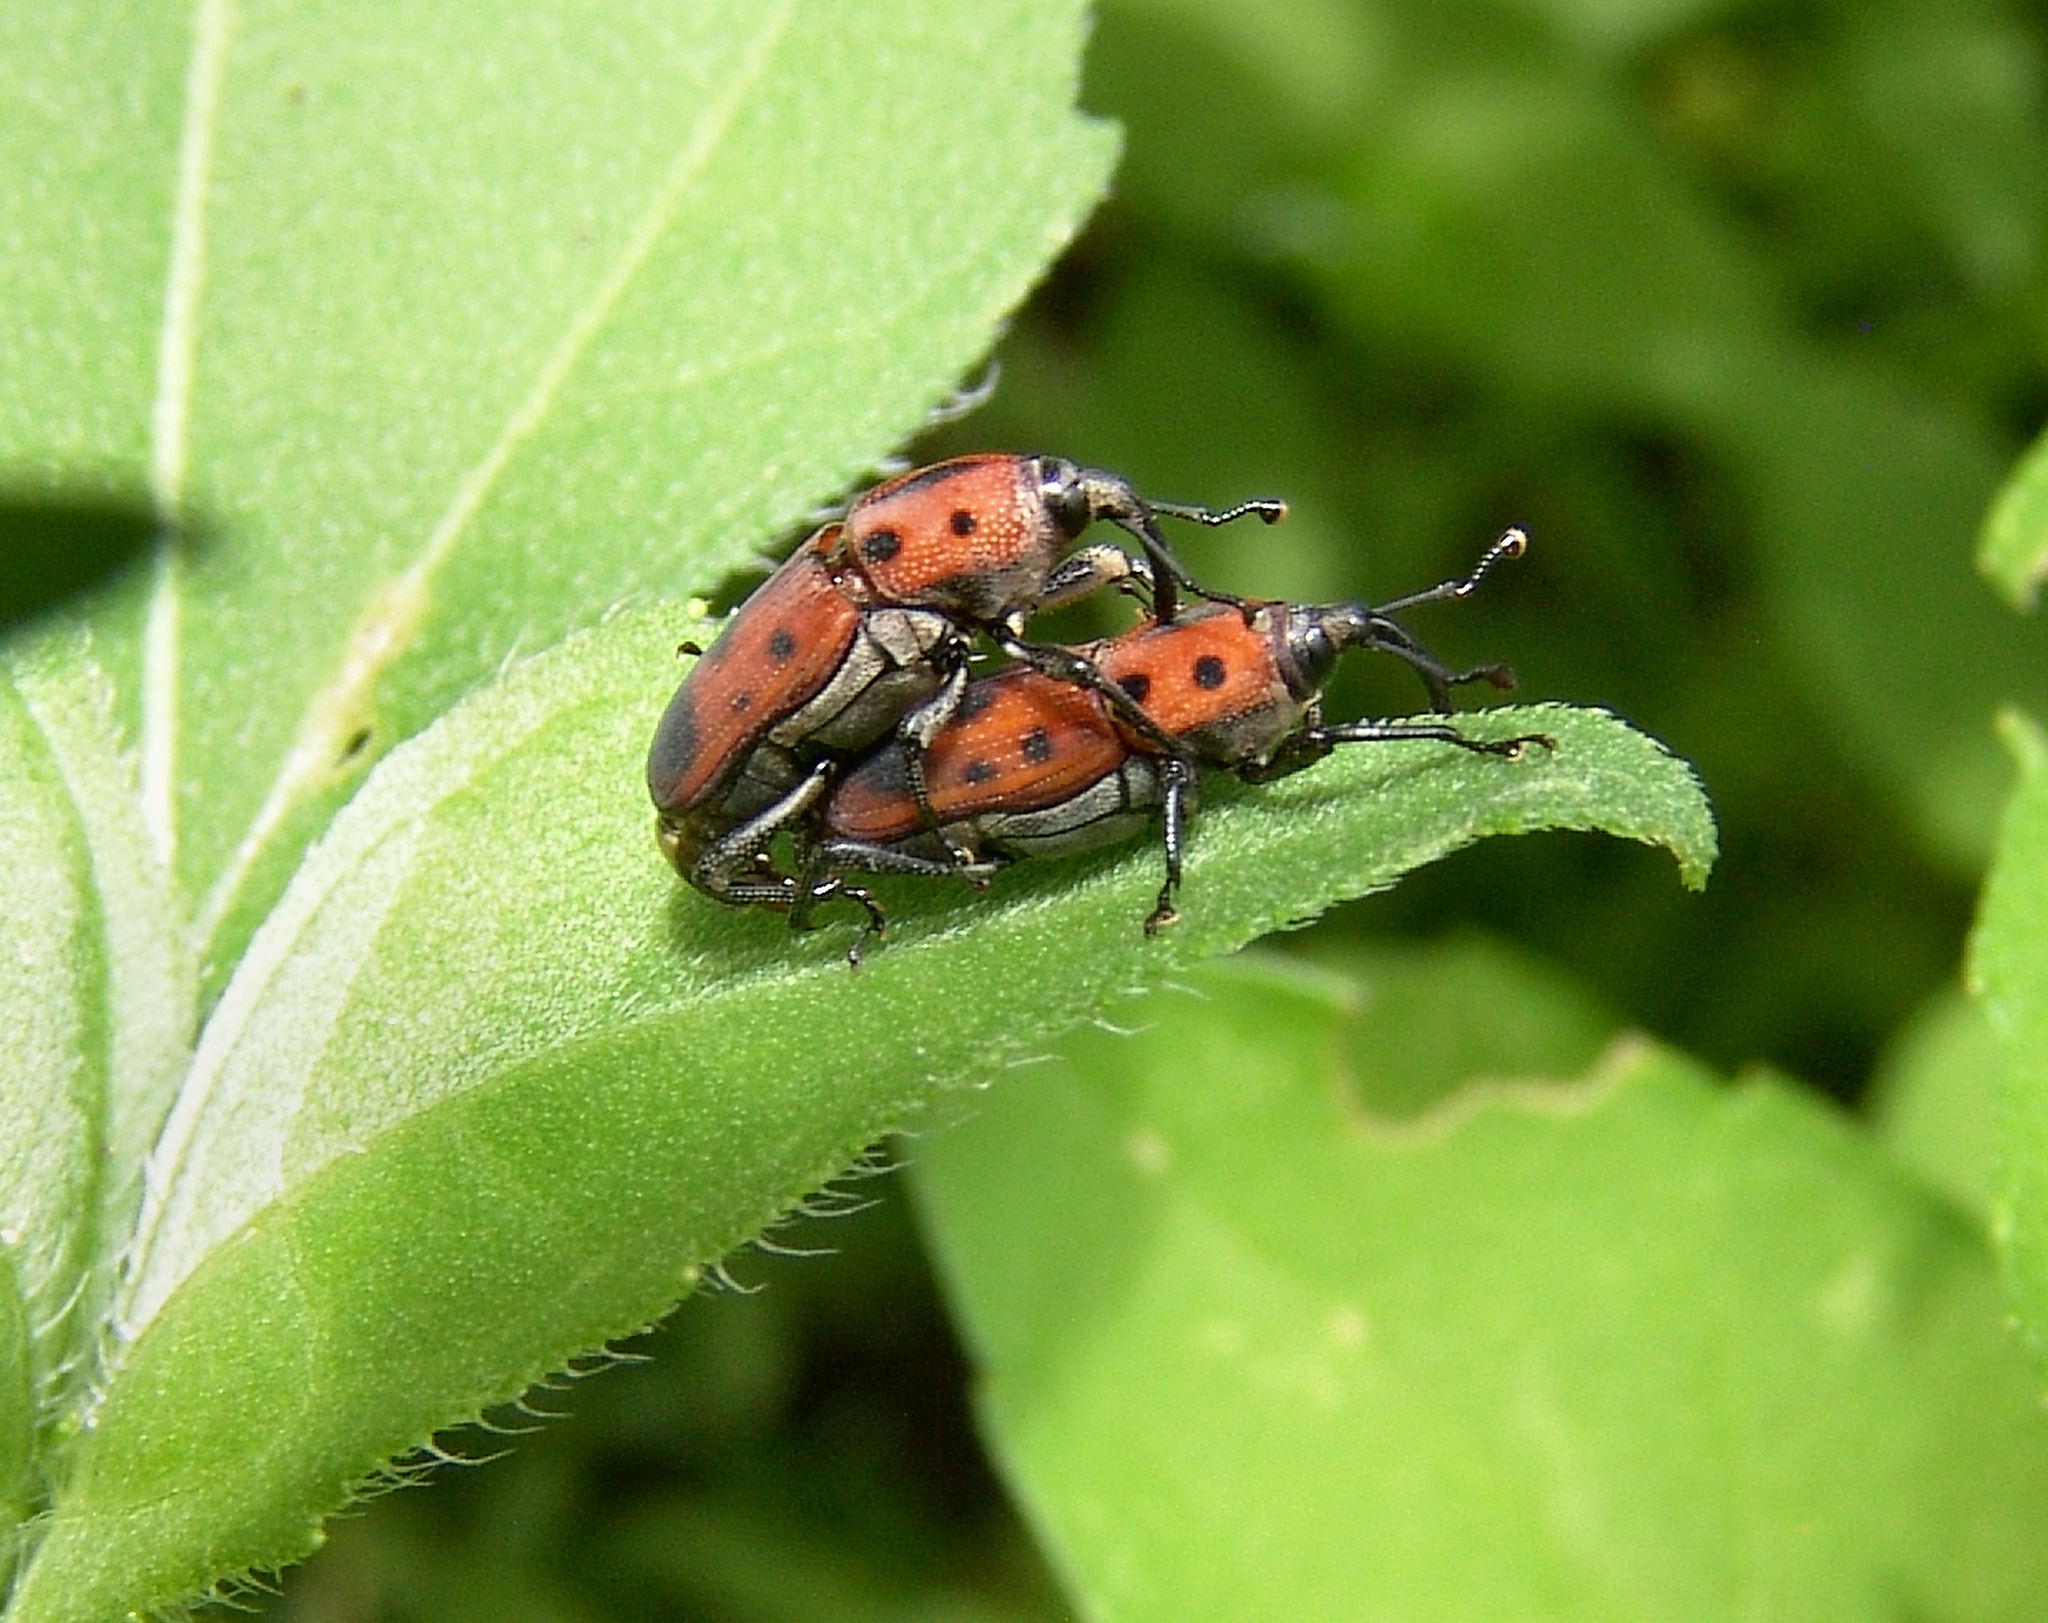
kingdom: Animalia
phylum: Arthropoda
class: Insecta
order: Coleoptera
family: Dryophthoridae
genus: Rhodobaenus
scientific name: Rhodobaenus quinquepunctatus
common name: Cocklebur weevil
